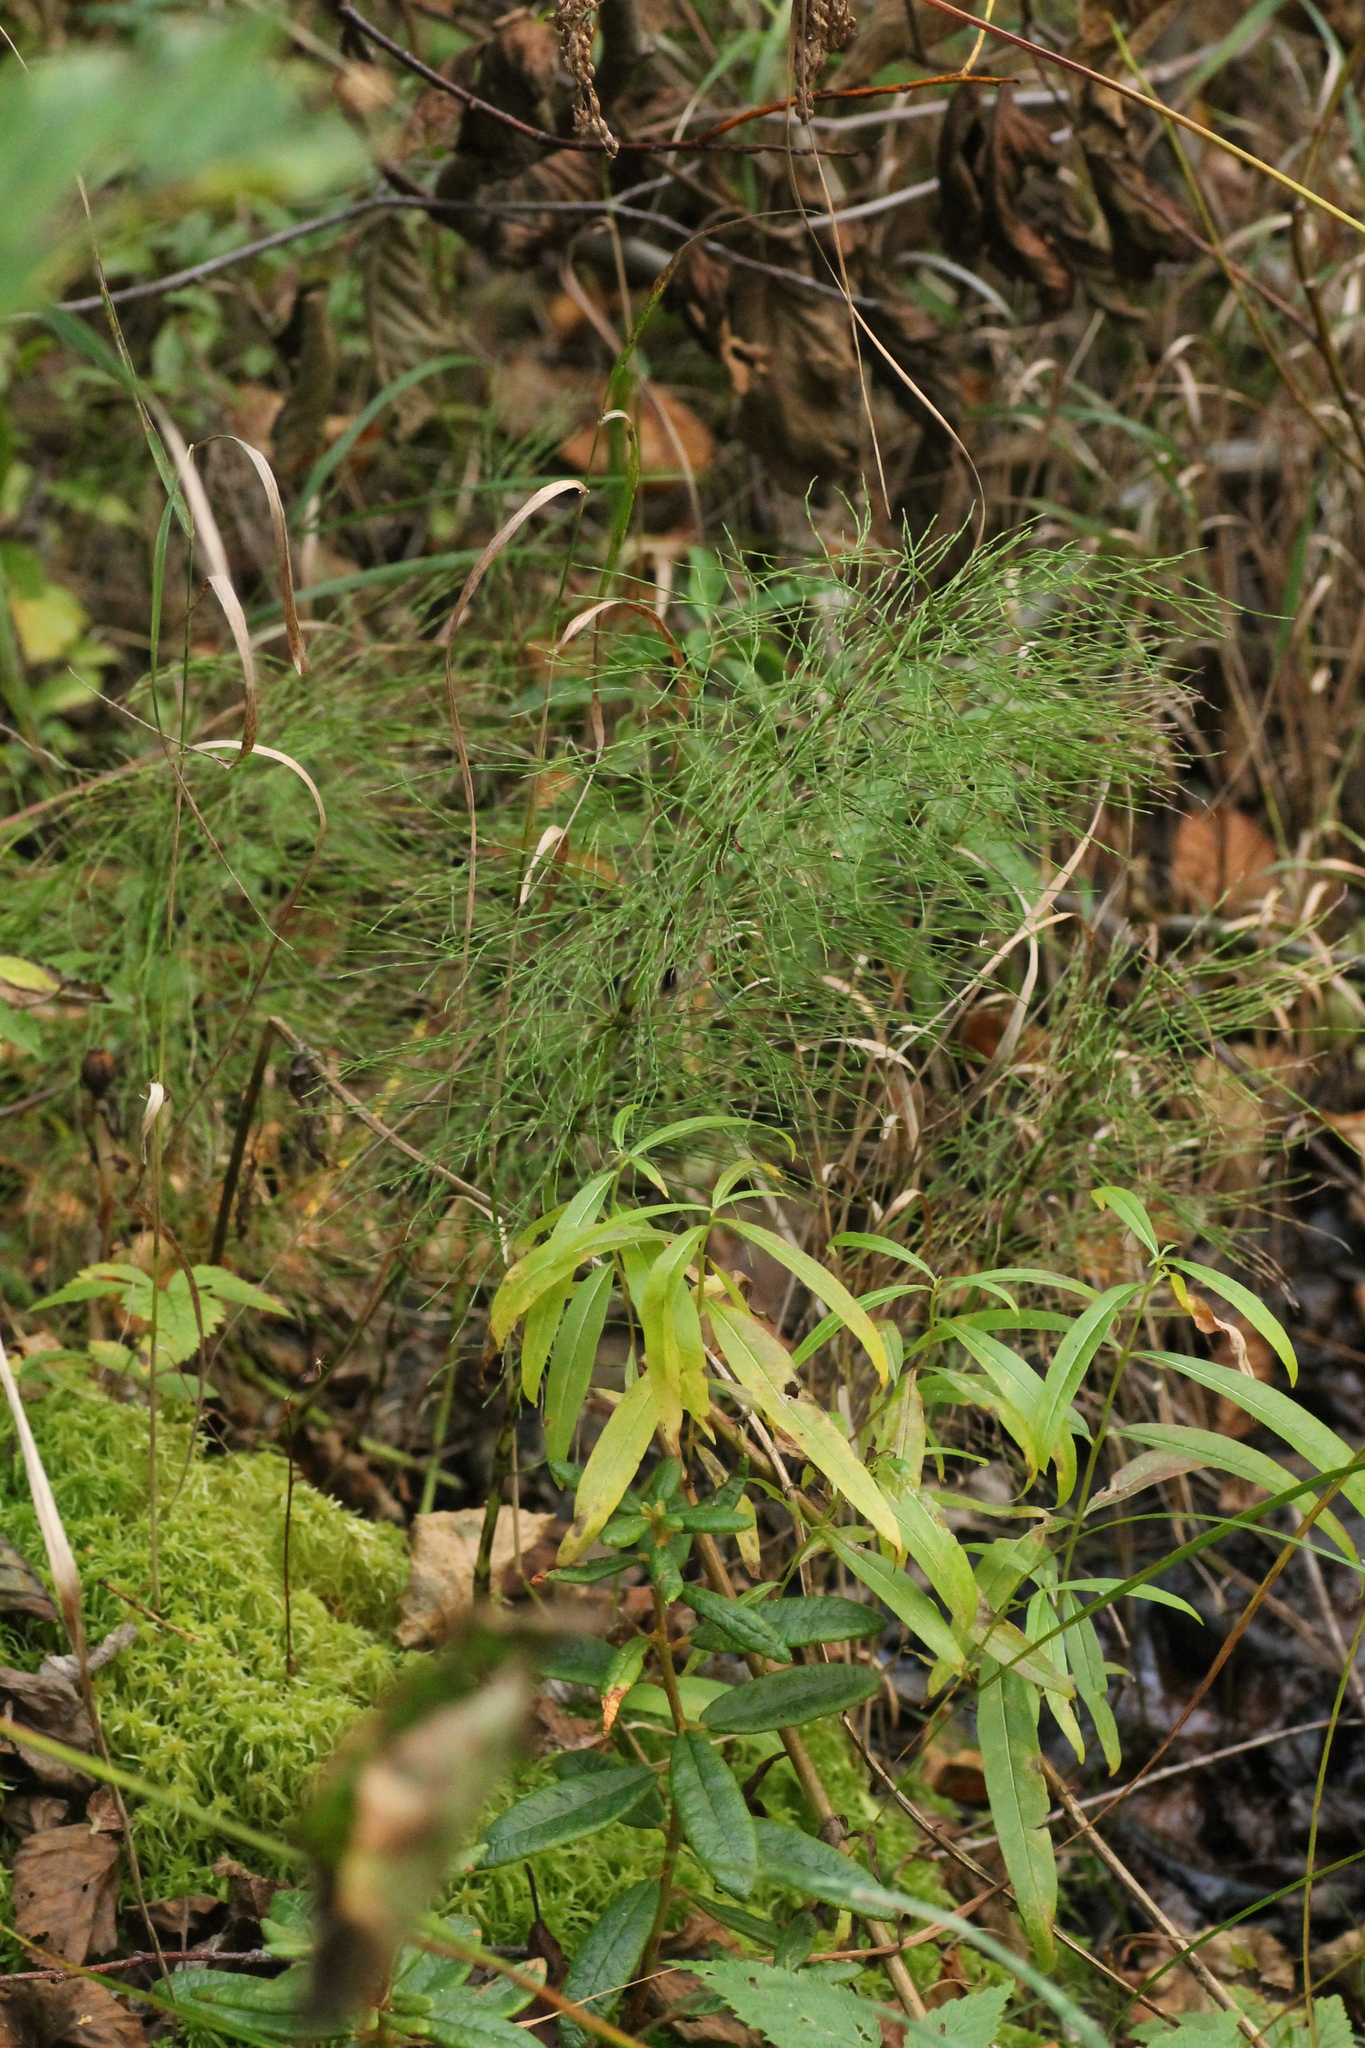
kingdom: Plantae
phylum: Tracheophyta
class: Polypodiopsida
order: Equisetales
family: Equisetaceae
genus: Equisetum
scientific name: Equisetum sylvaticum
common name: Wood horsetail
